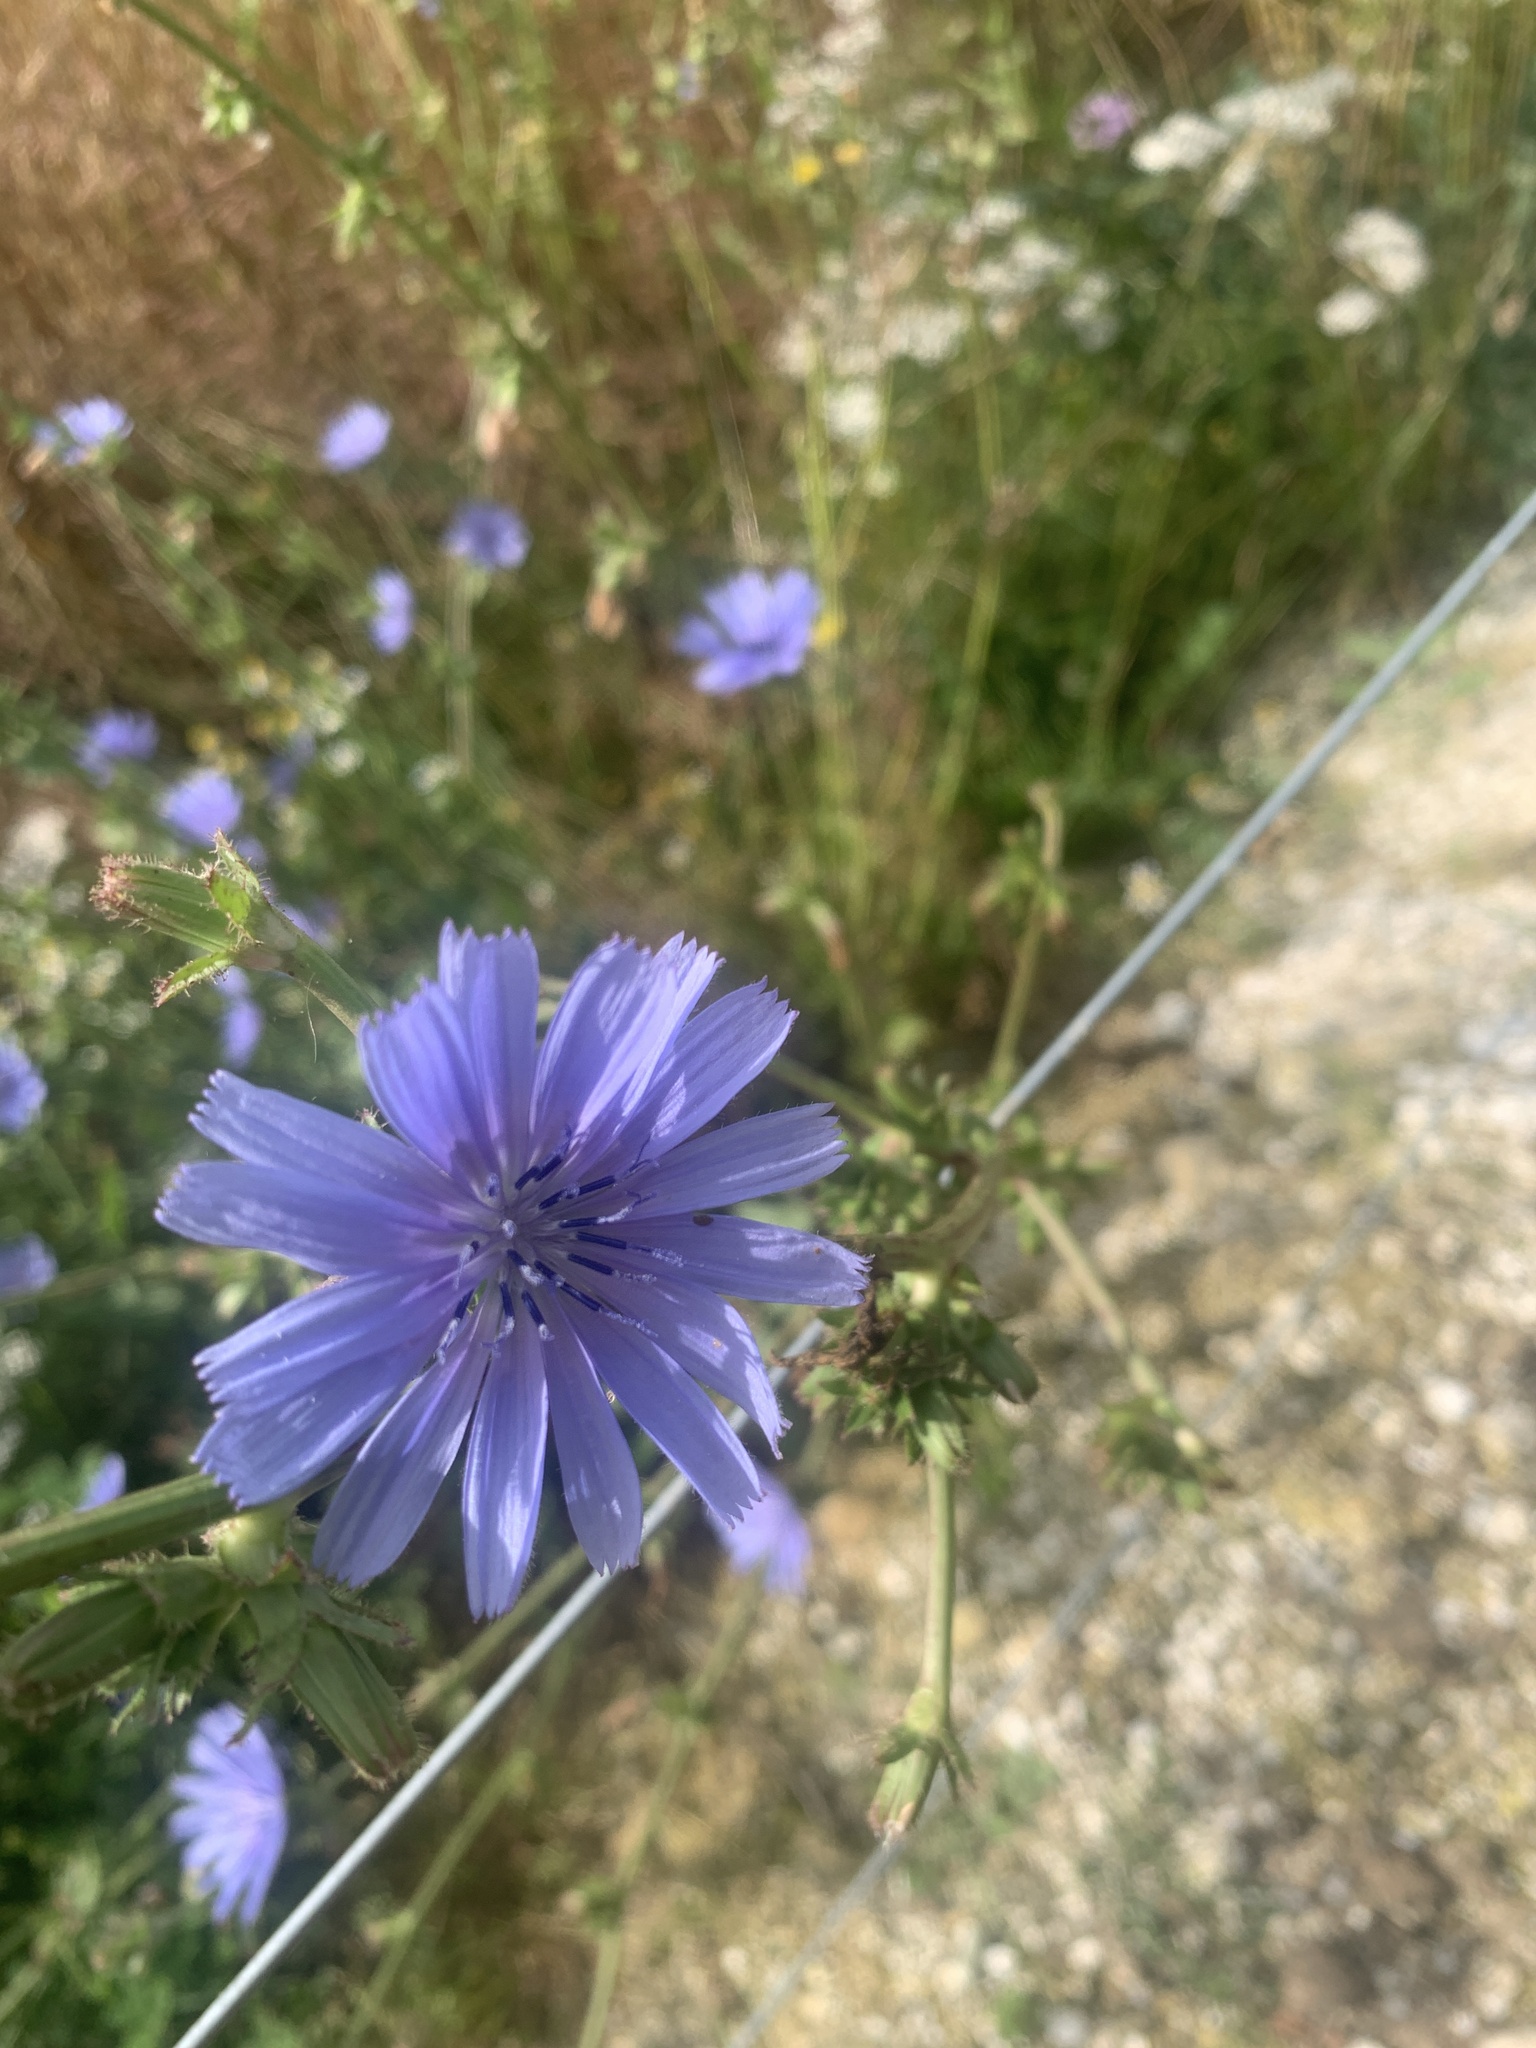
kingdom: Plantae
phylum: Tracheophyta
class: Magnoliopsida
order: Asterales
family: Asteraceae
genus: Cichorium
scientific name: Cichorium intybus
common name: Chicory
